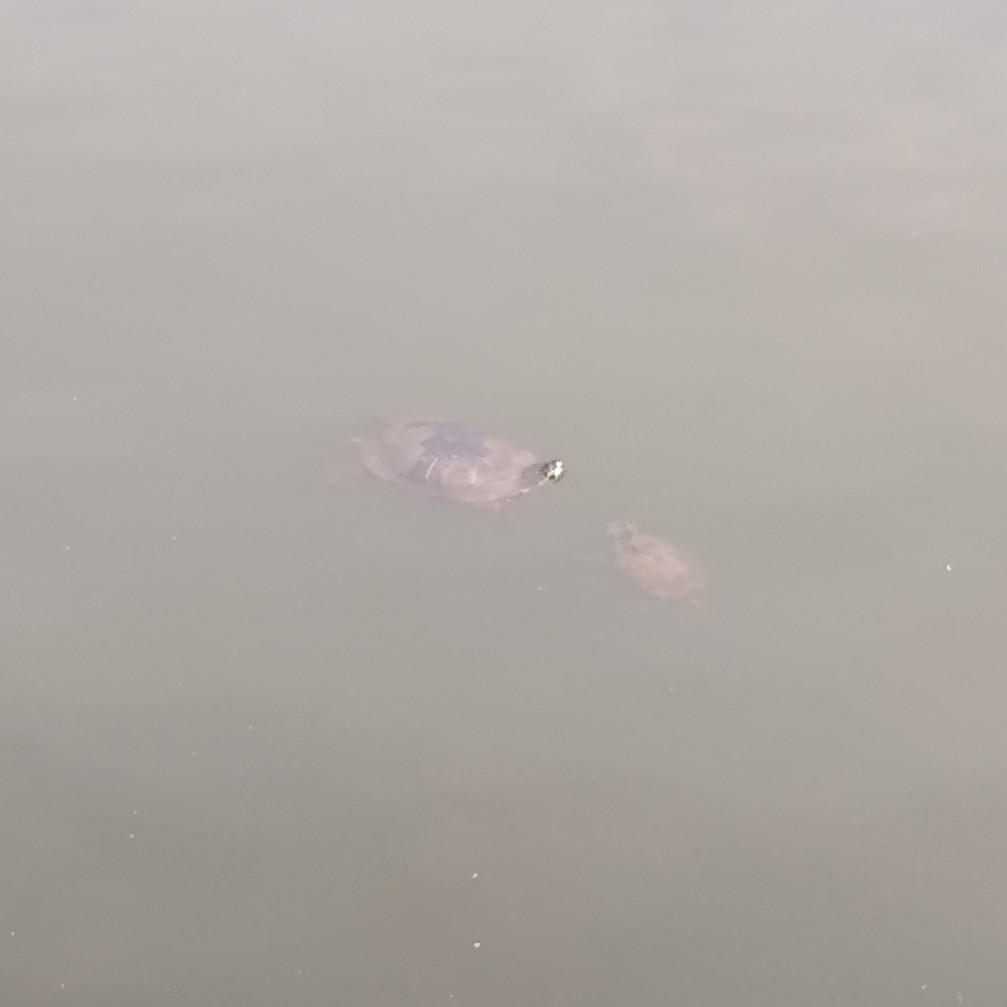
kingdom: Animalia
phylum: Chordata
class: Testudines
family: Emydidae
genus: Trachemys
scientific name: Trachemys scripta
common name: Slider
